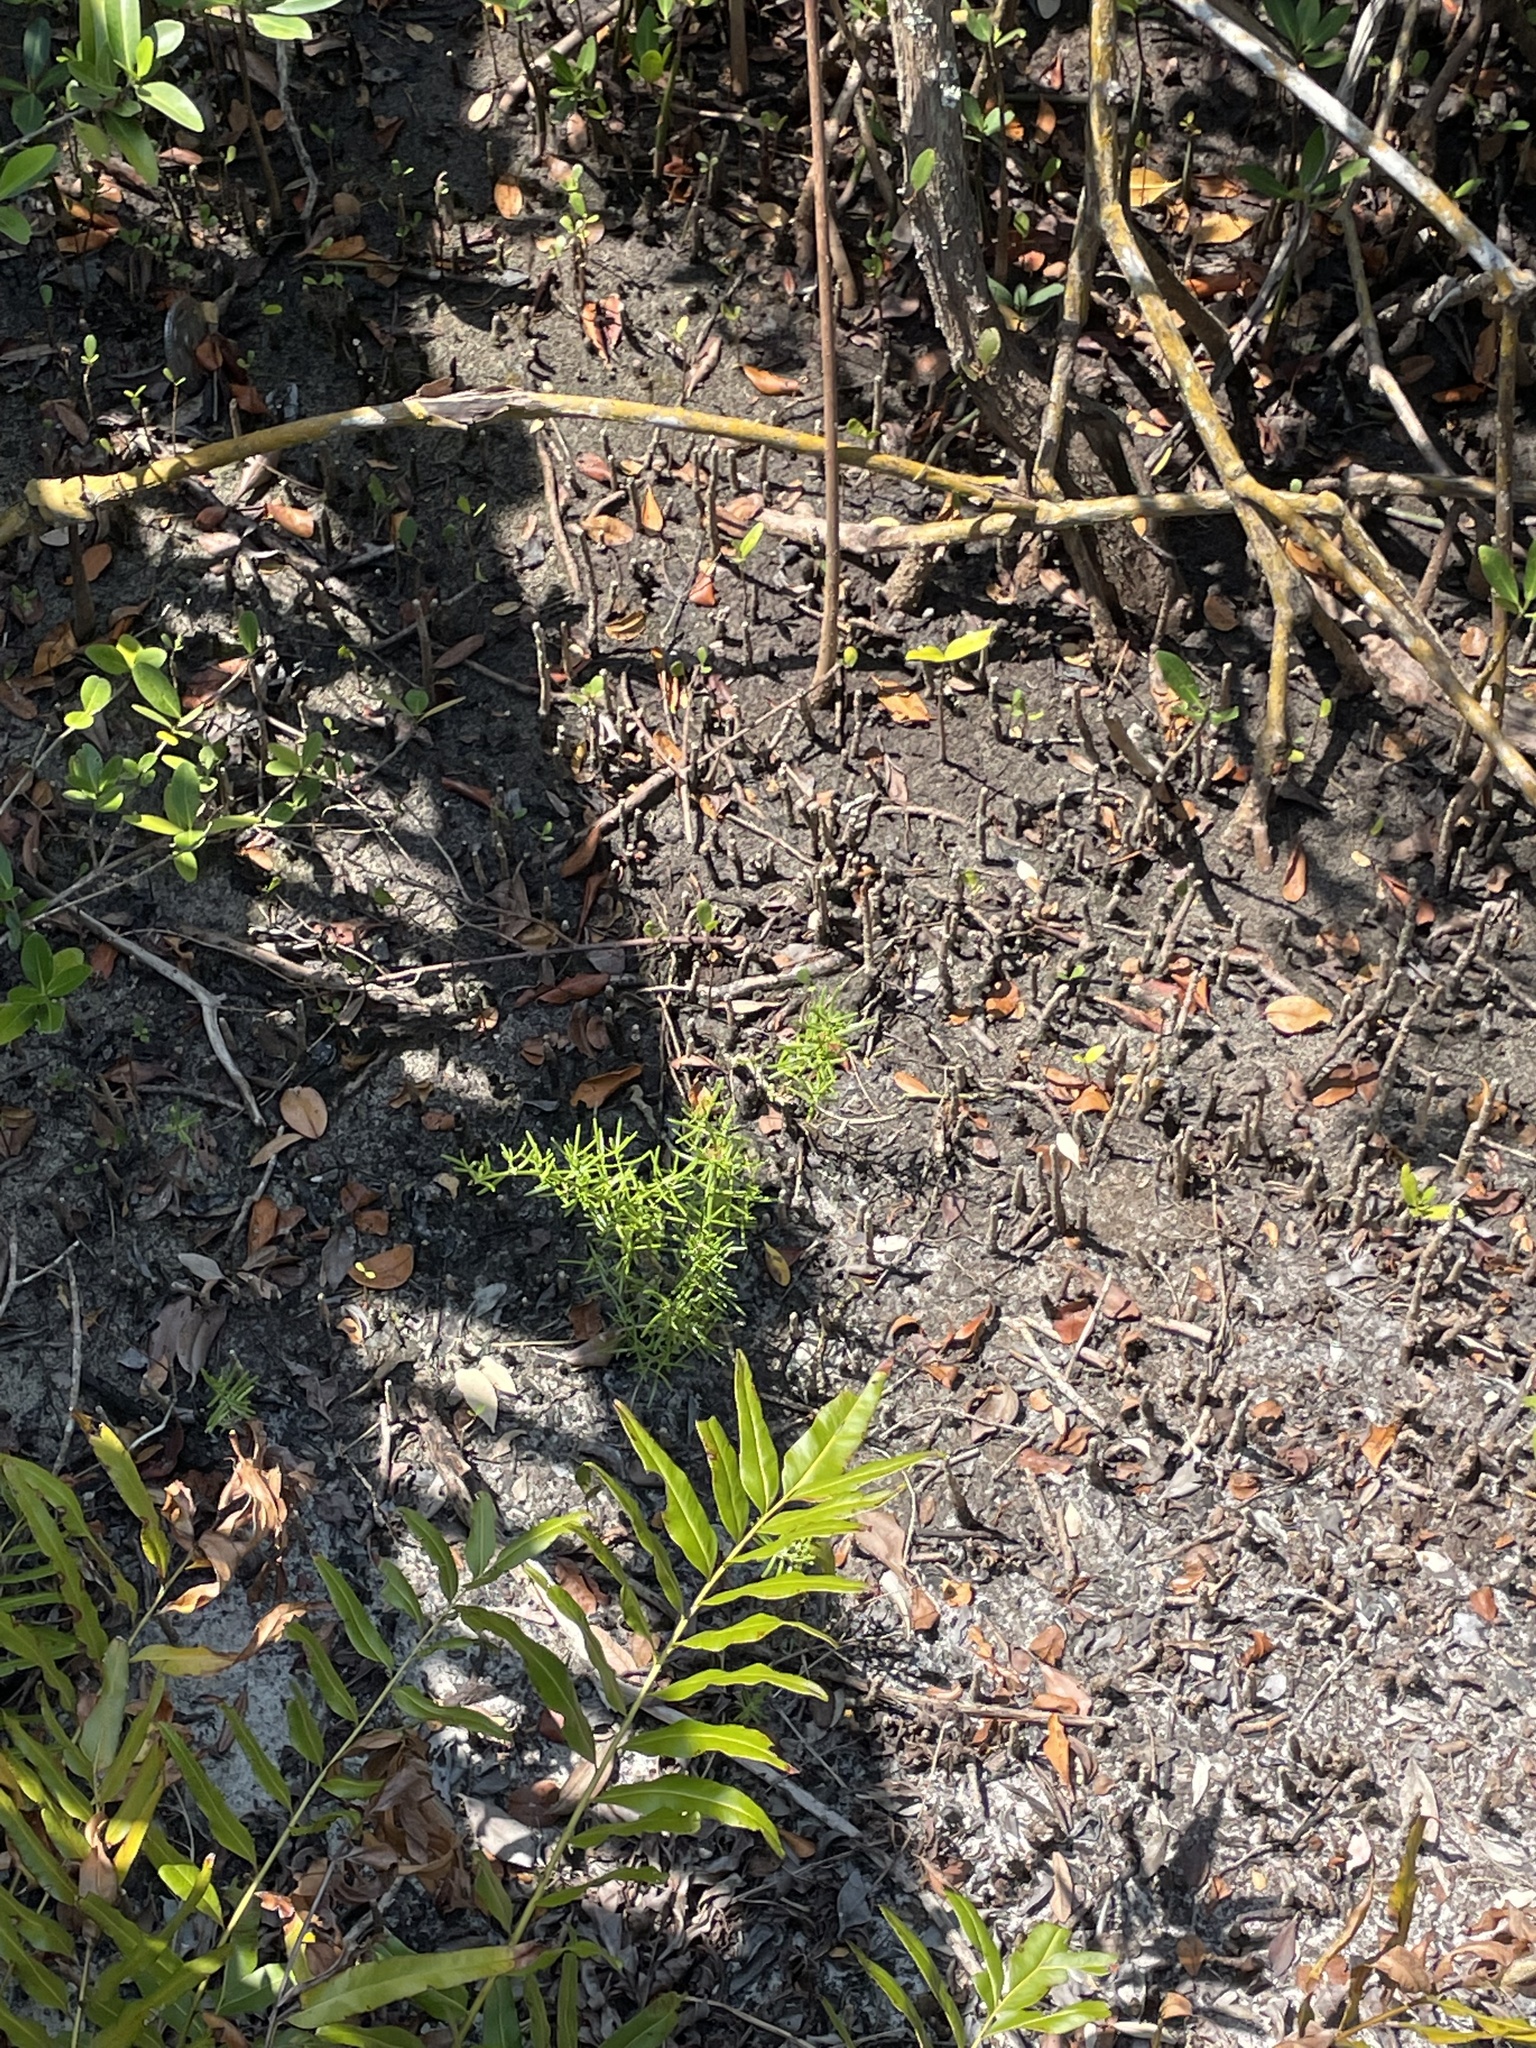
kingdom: Plantae
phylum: Tracheophyta
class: Polypodiopsida
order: Polypodiales
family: Pteridaceae
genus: Acrostichum
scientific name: Acrostichum aureum
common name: Leather fern
